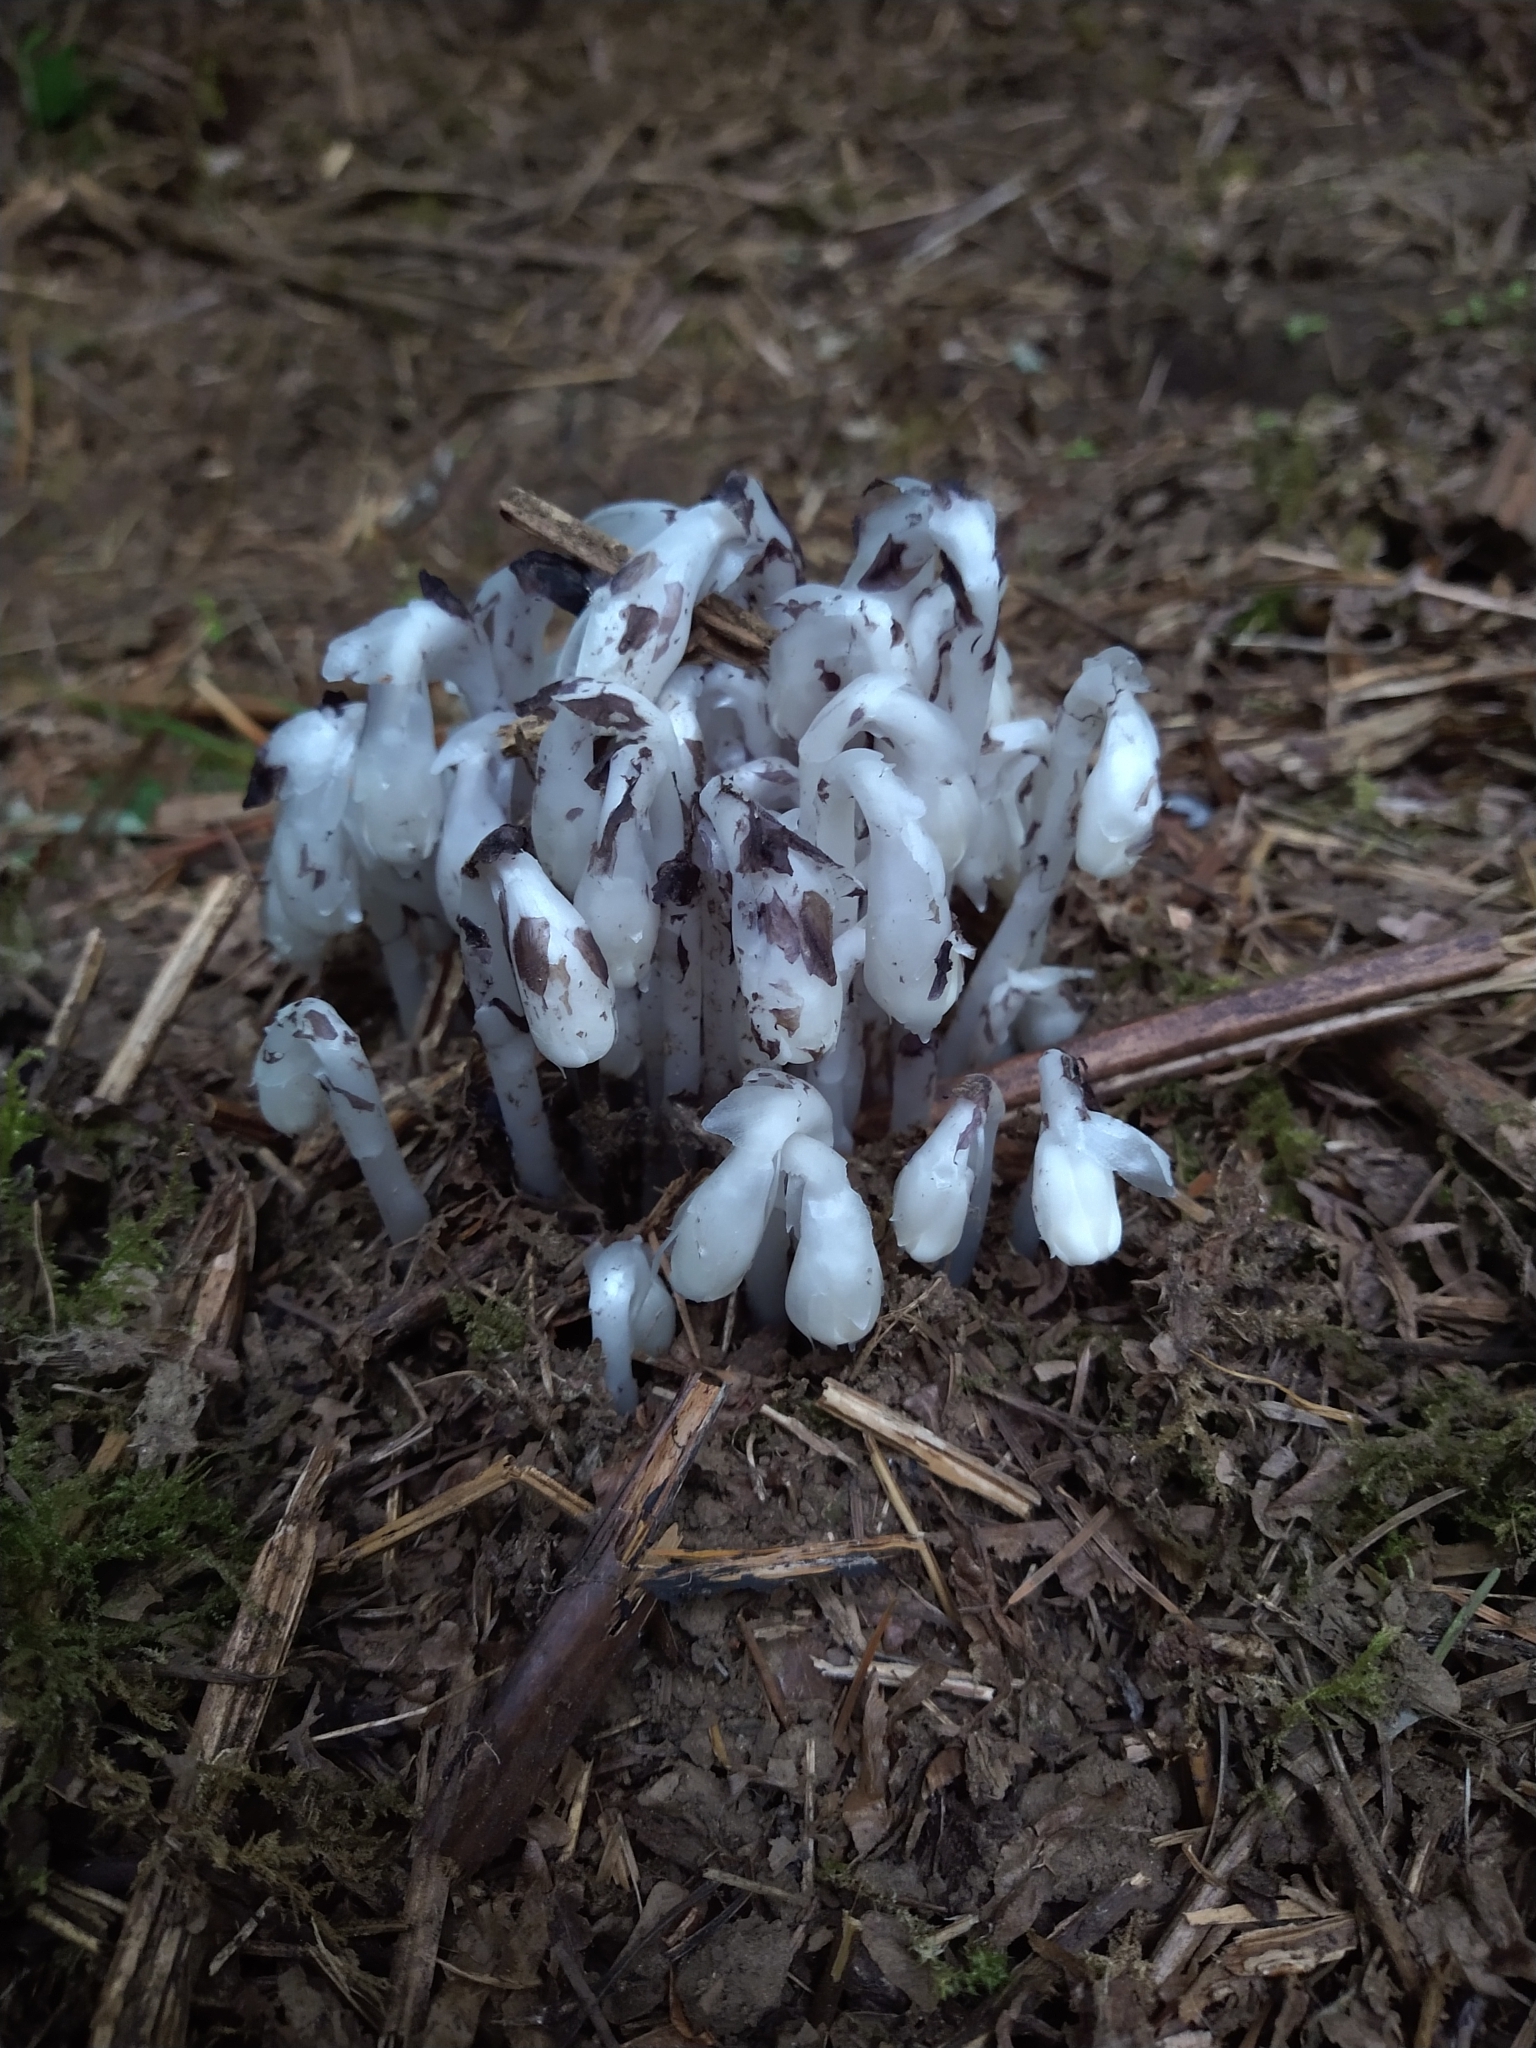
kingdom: Plantae
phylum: Tracheophyta
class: Magnoliopsida
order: Ericales
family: Ericaceae
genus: Monotropa
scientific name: Monotropa uniflora
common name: Convulsion root
